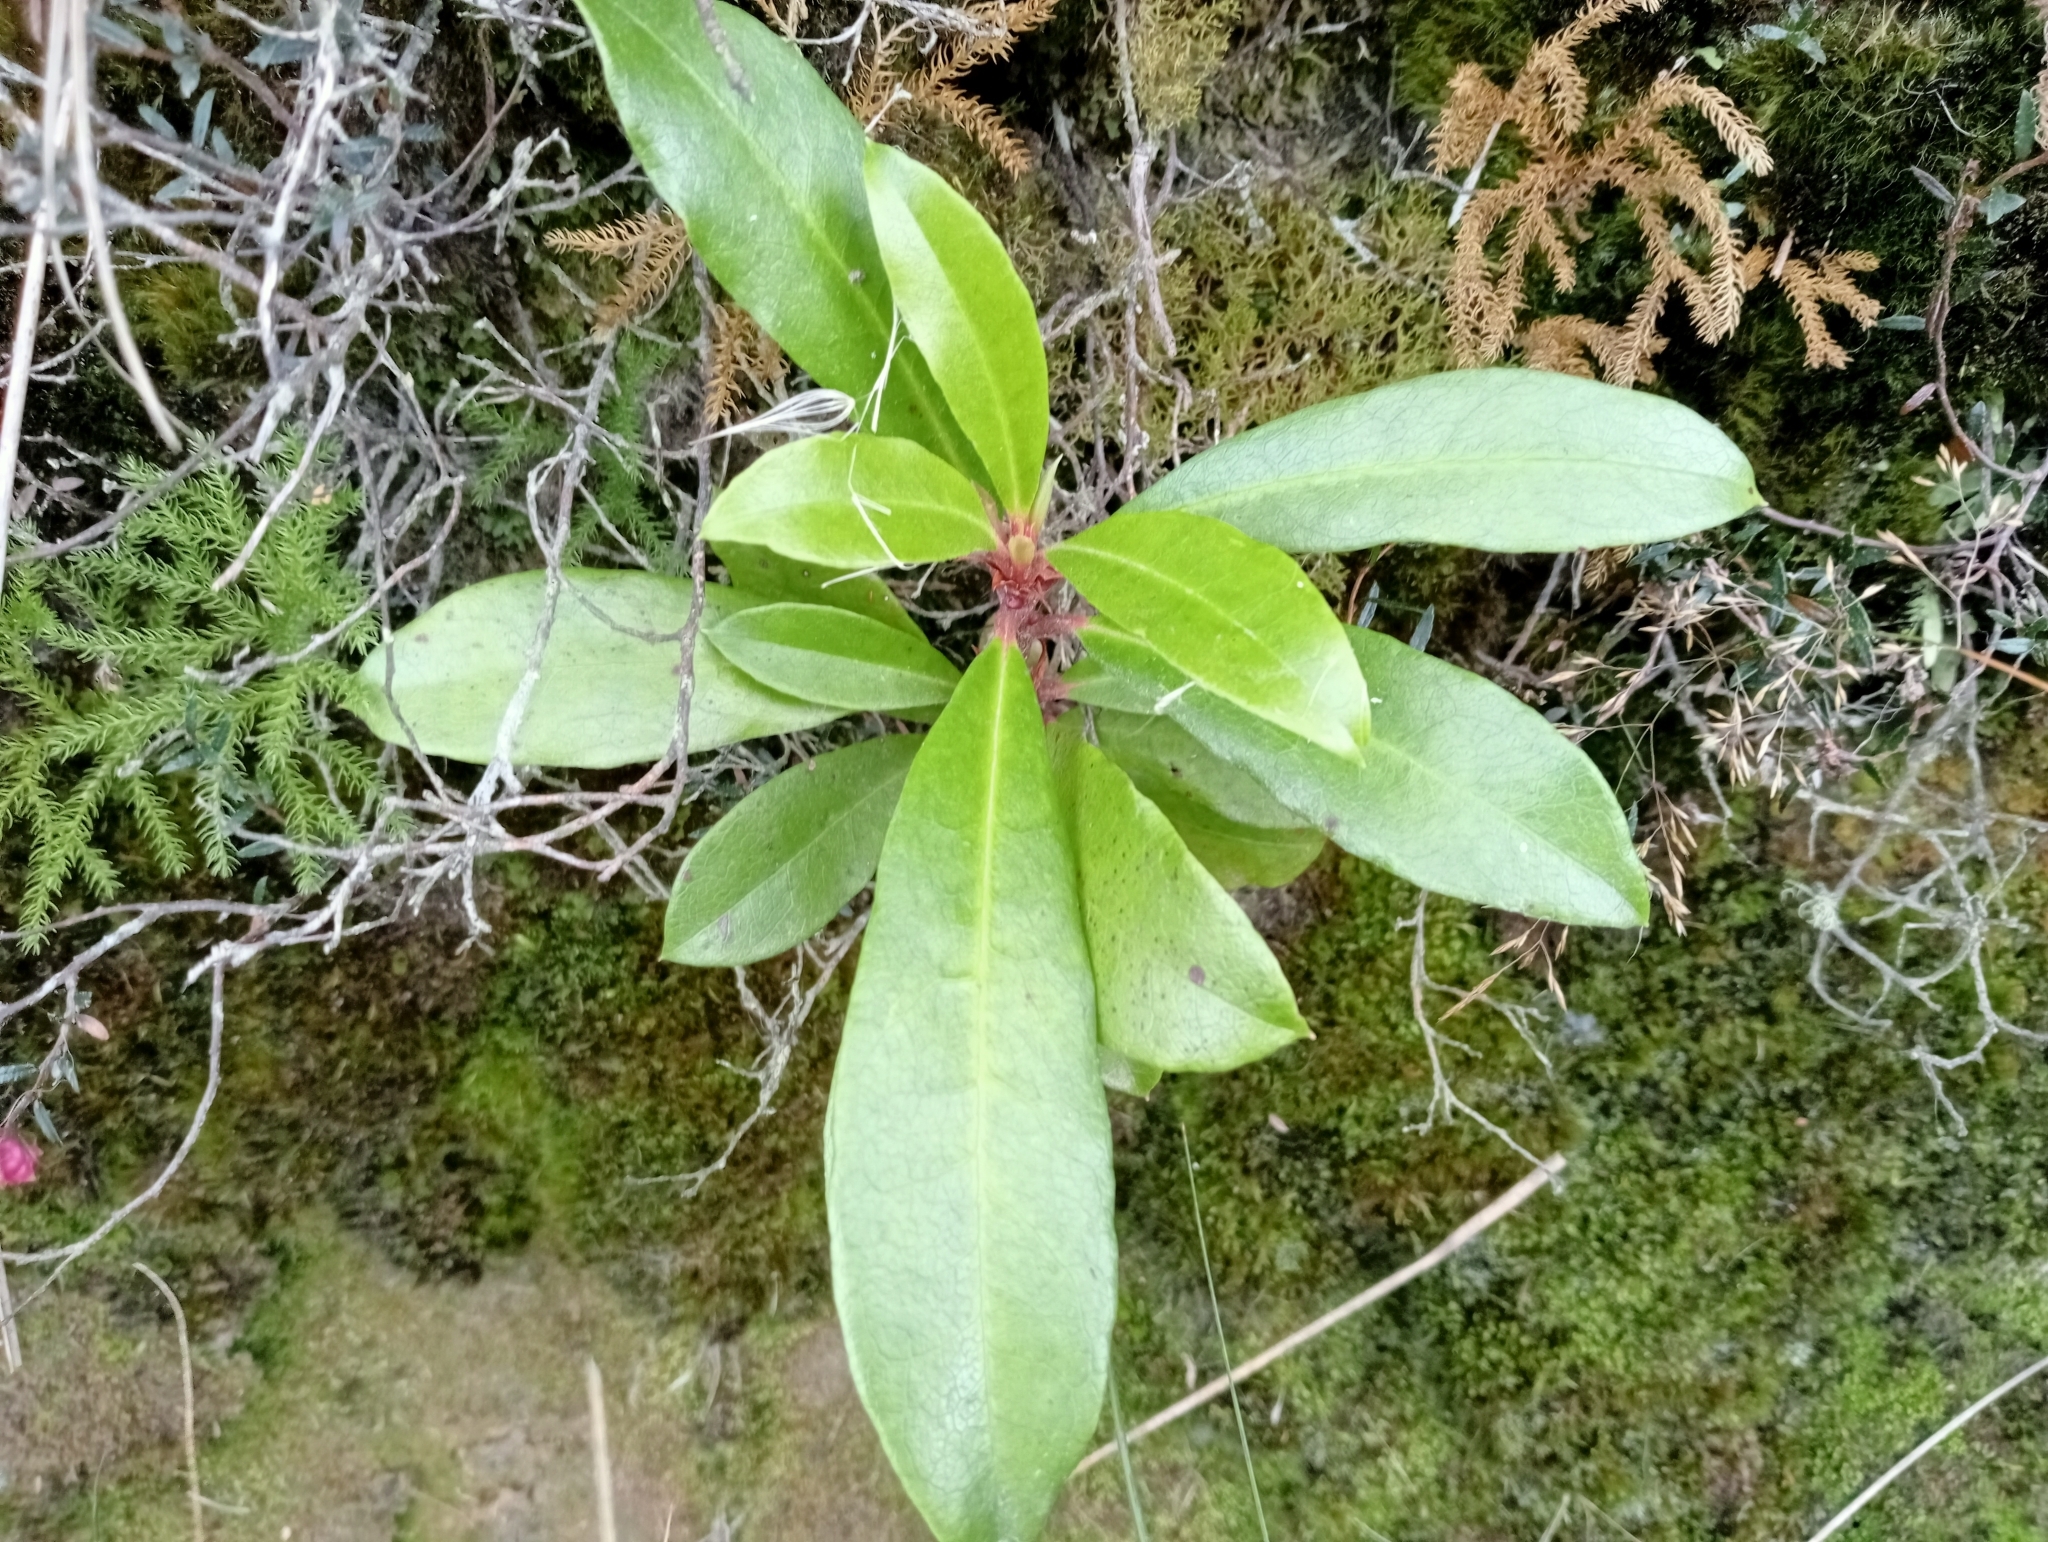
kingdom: Plantae
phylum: Tracheophyta
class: Magnoliopsida
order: Ericales
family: Ericaceae
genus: Rhododendron
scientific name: Rhododendron ponticum
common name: Rhododendron
